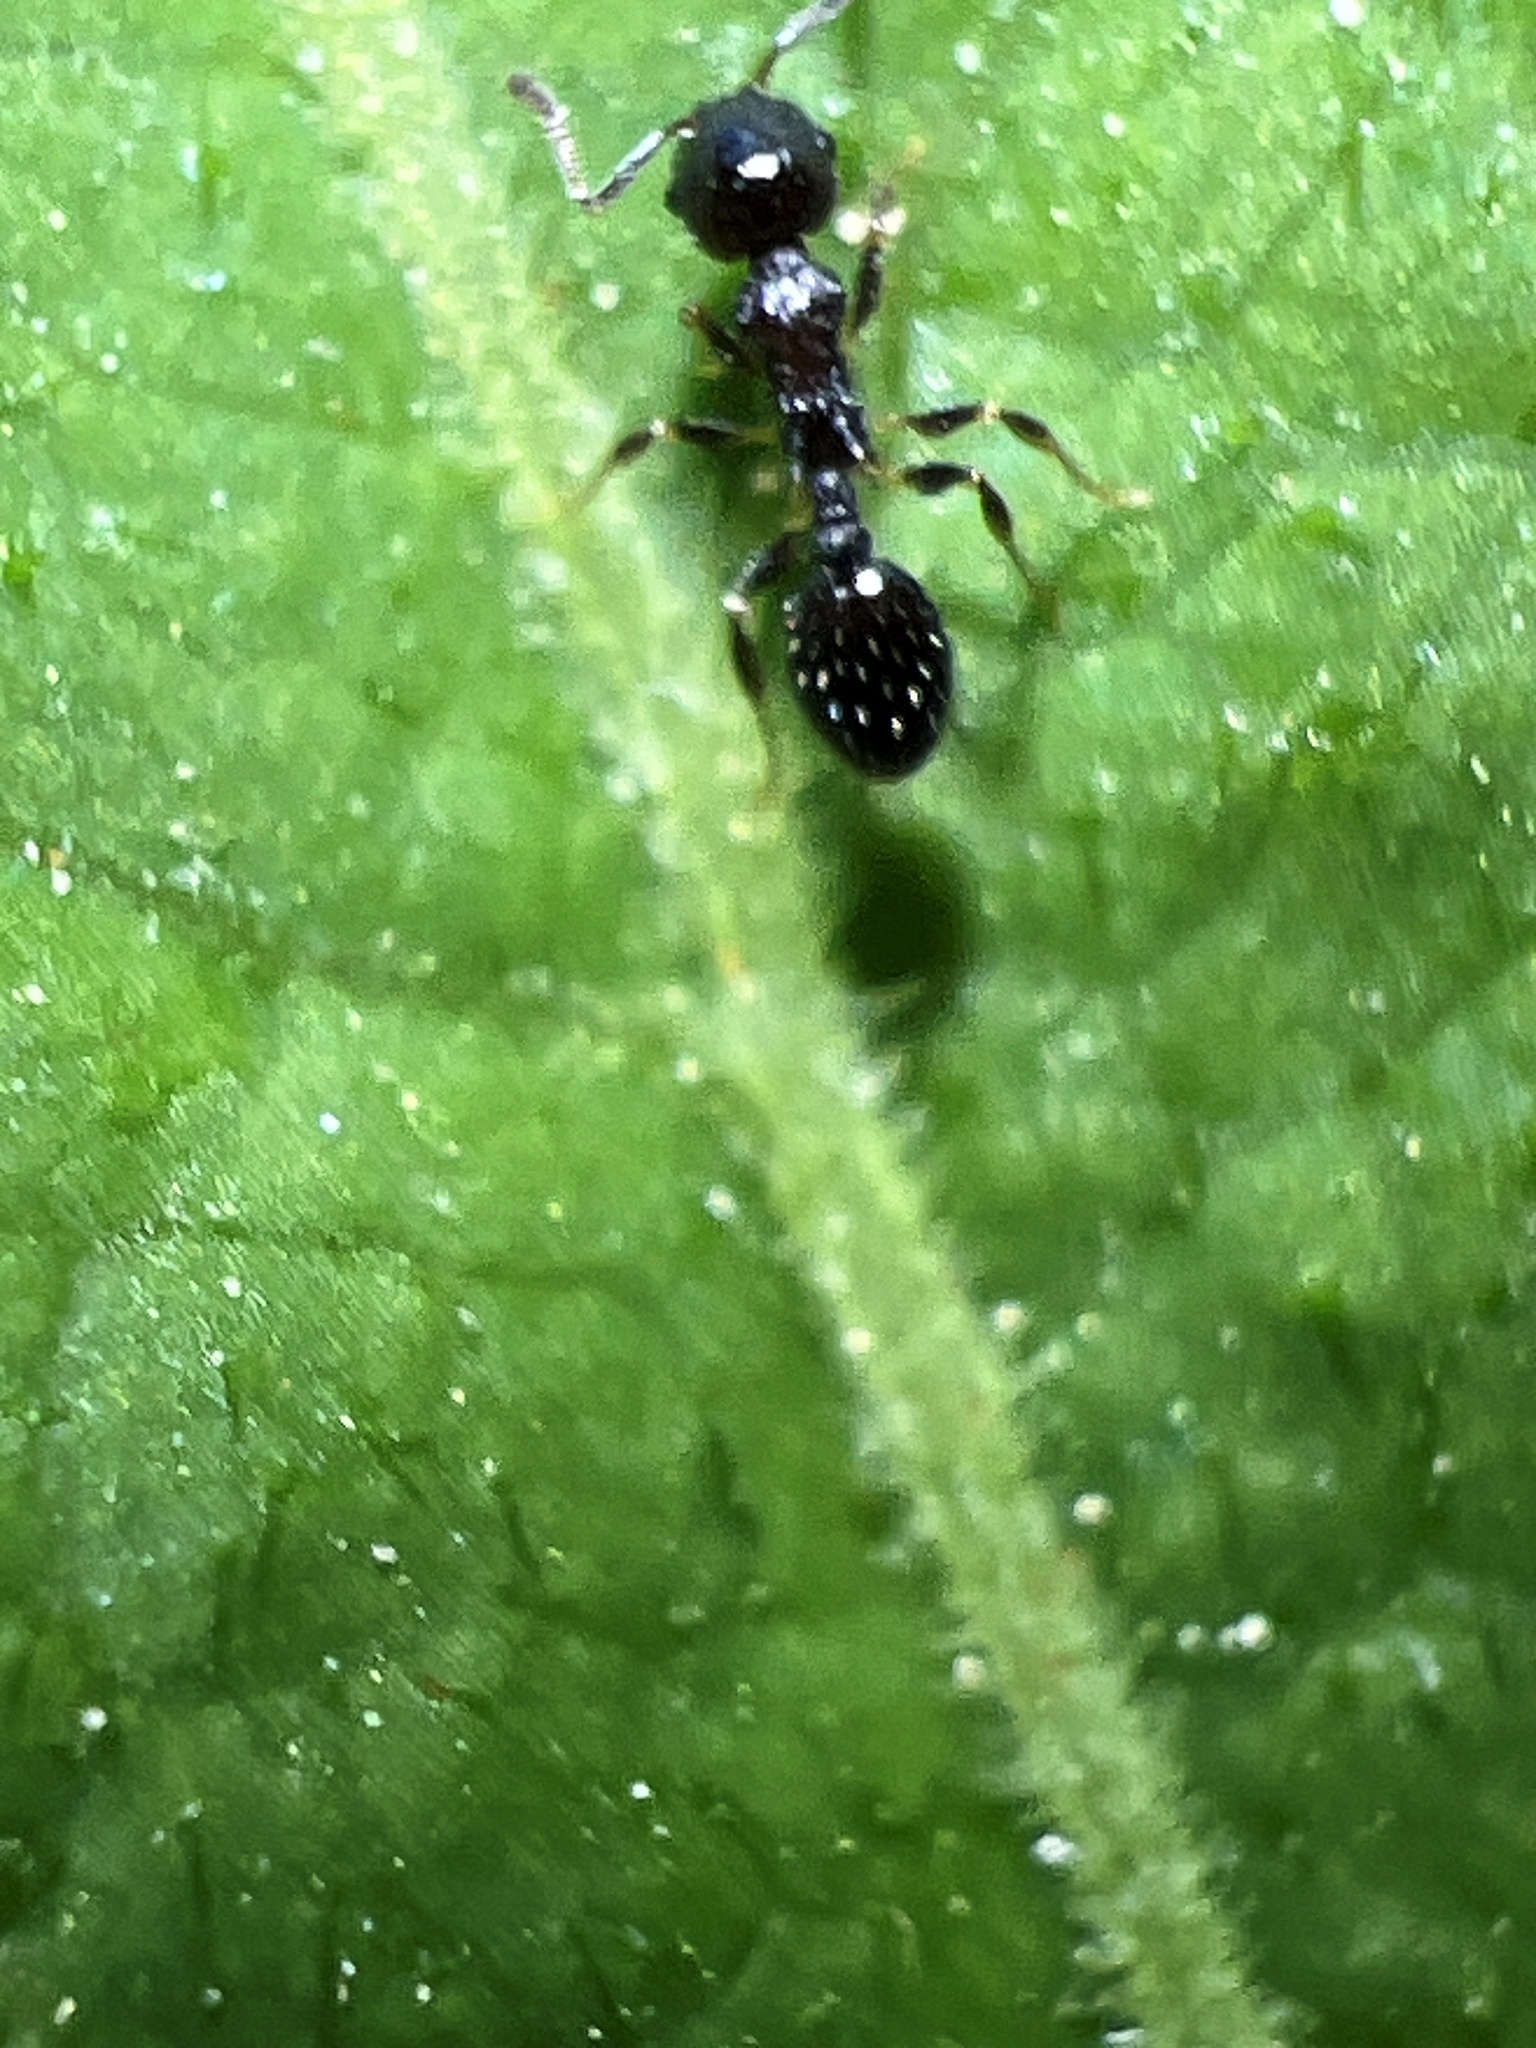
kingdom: Animalia
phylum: Arthropoda
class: Insecta
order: Hymenoptera
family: Formicidae
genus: Temnothorax
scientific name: Temnothorax longispinosus
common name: Long-spined acorn ant
